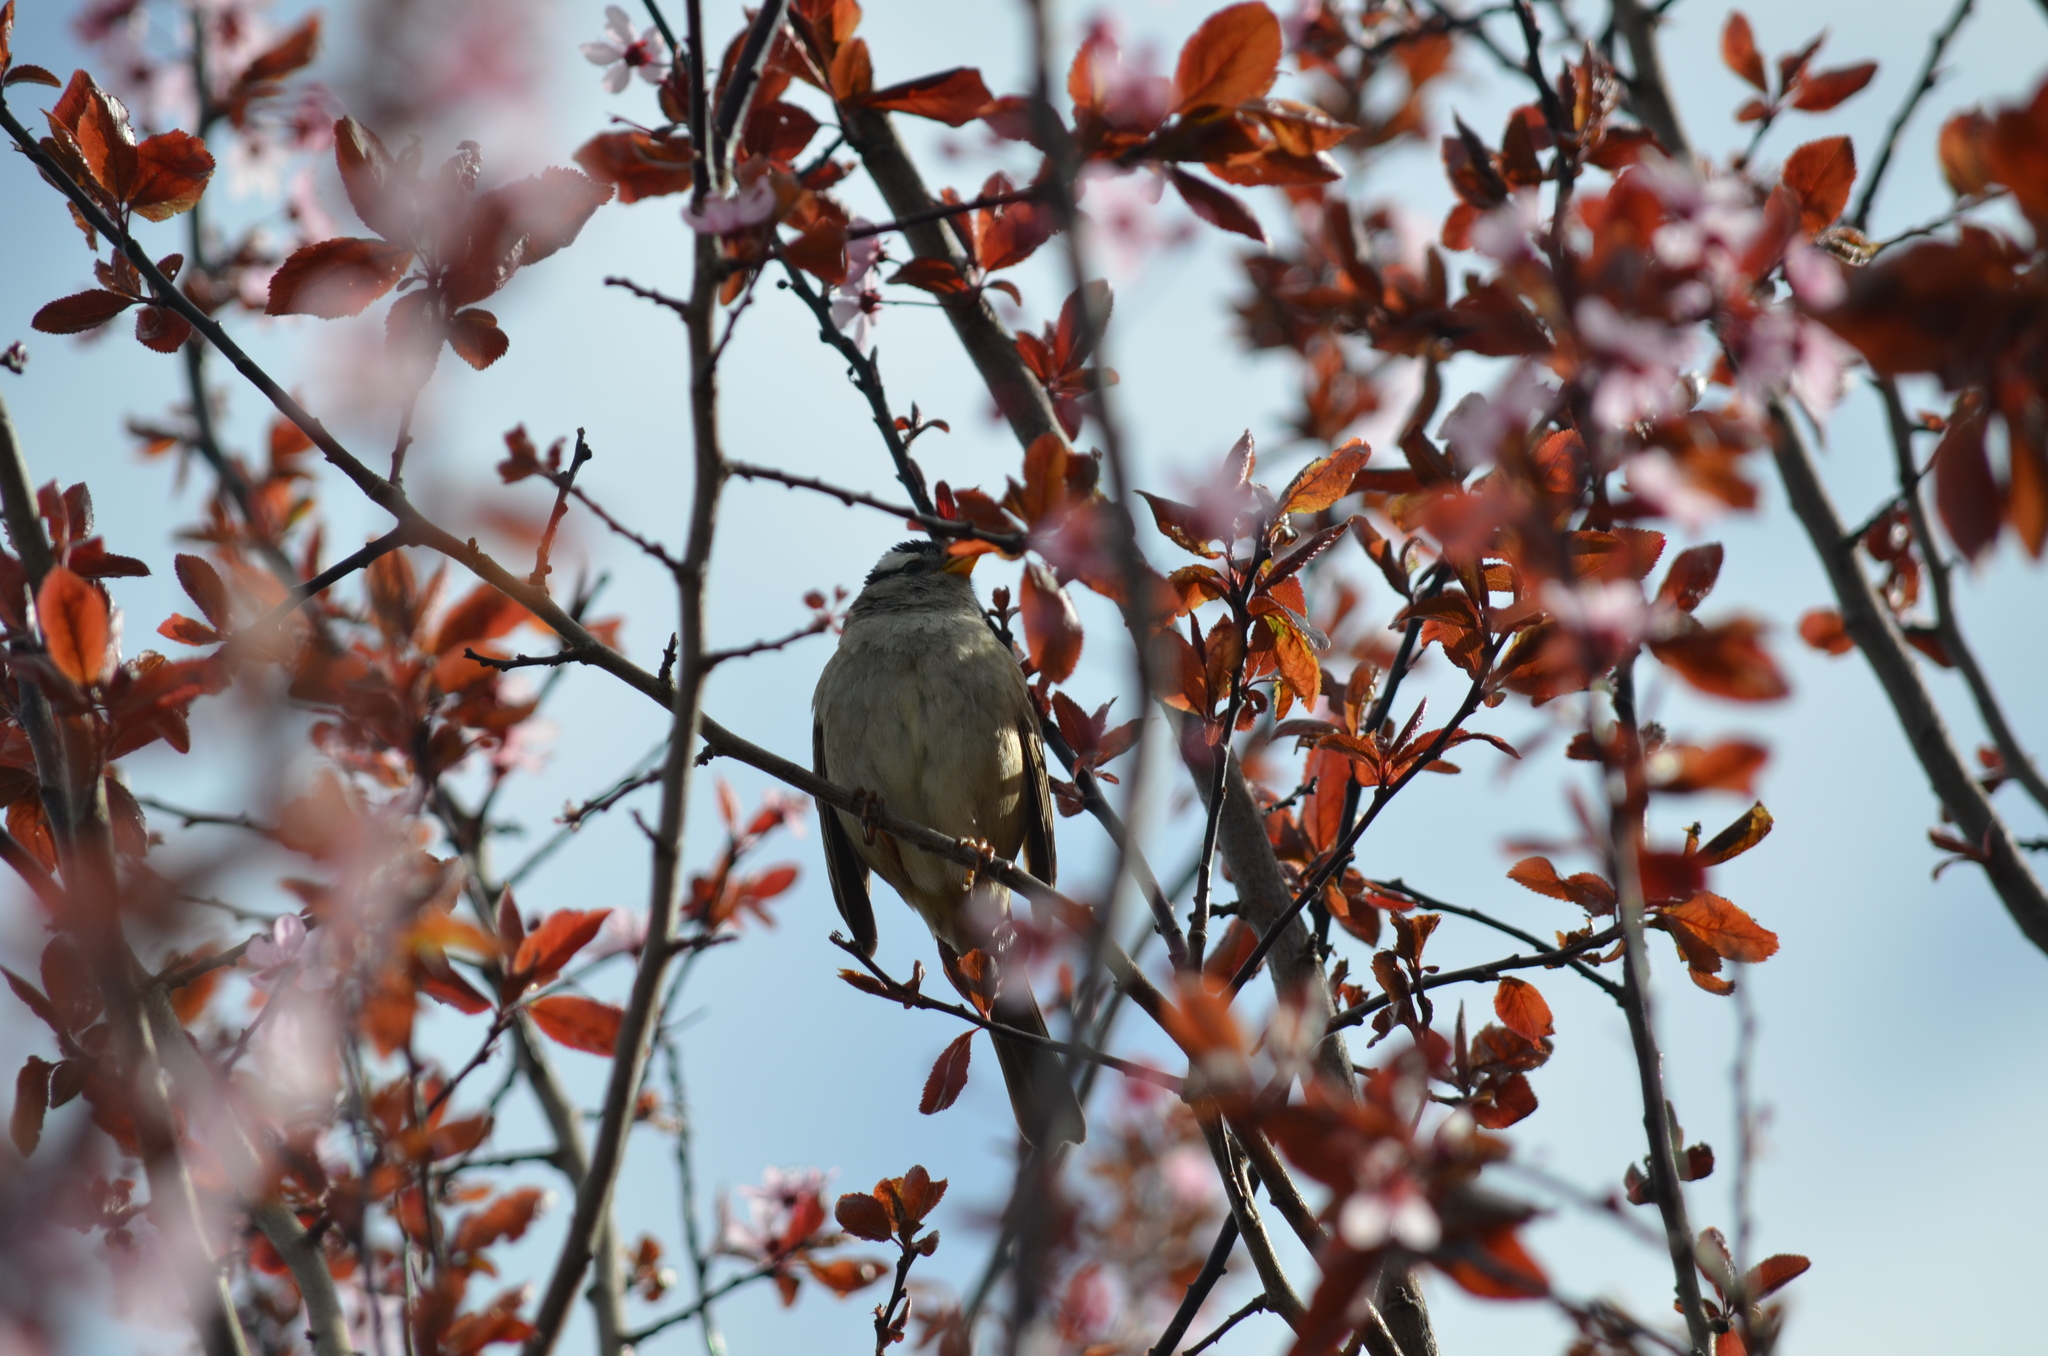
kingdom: Animalia
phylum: Chordata
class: Aves
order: Passeriformes
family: Passerellidae
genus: Zonotrichia
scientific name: Zonotrichia leucophrys
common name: White-crowned sparrow
